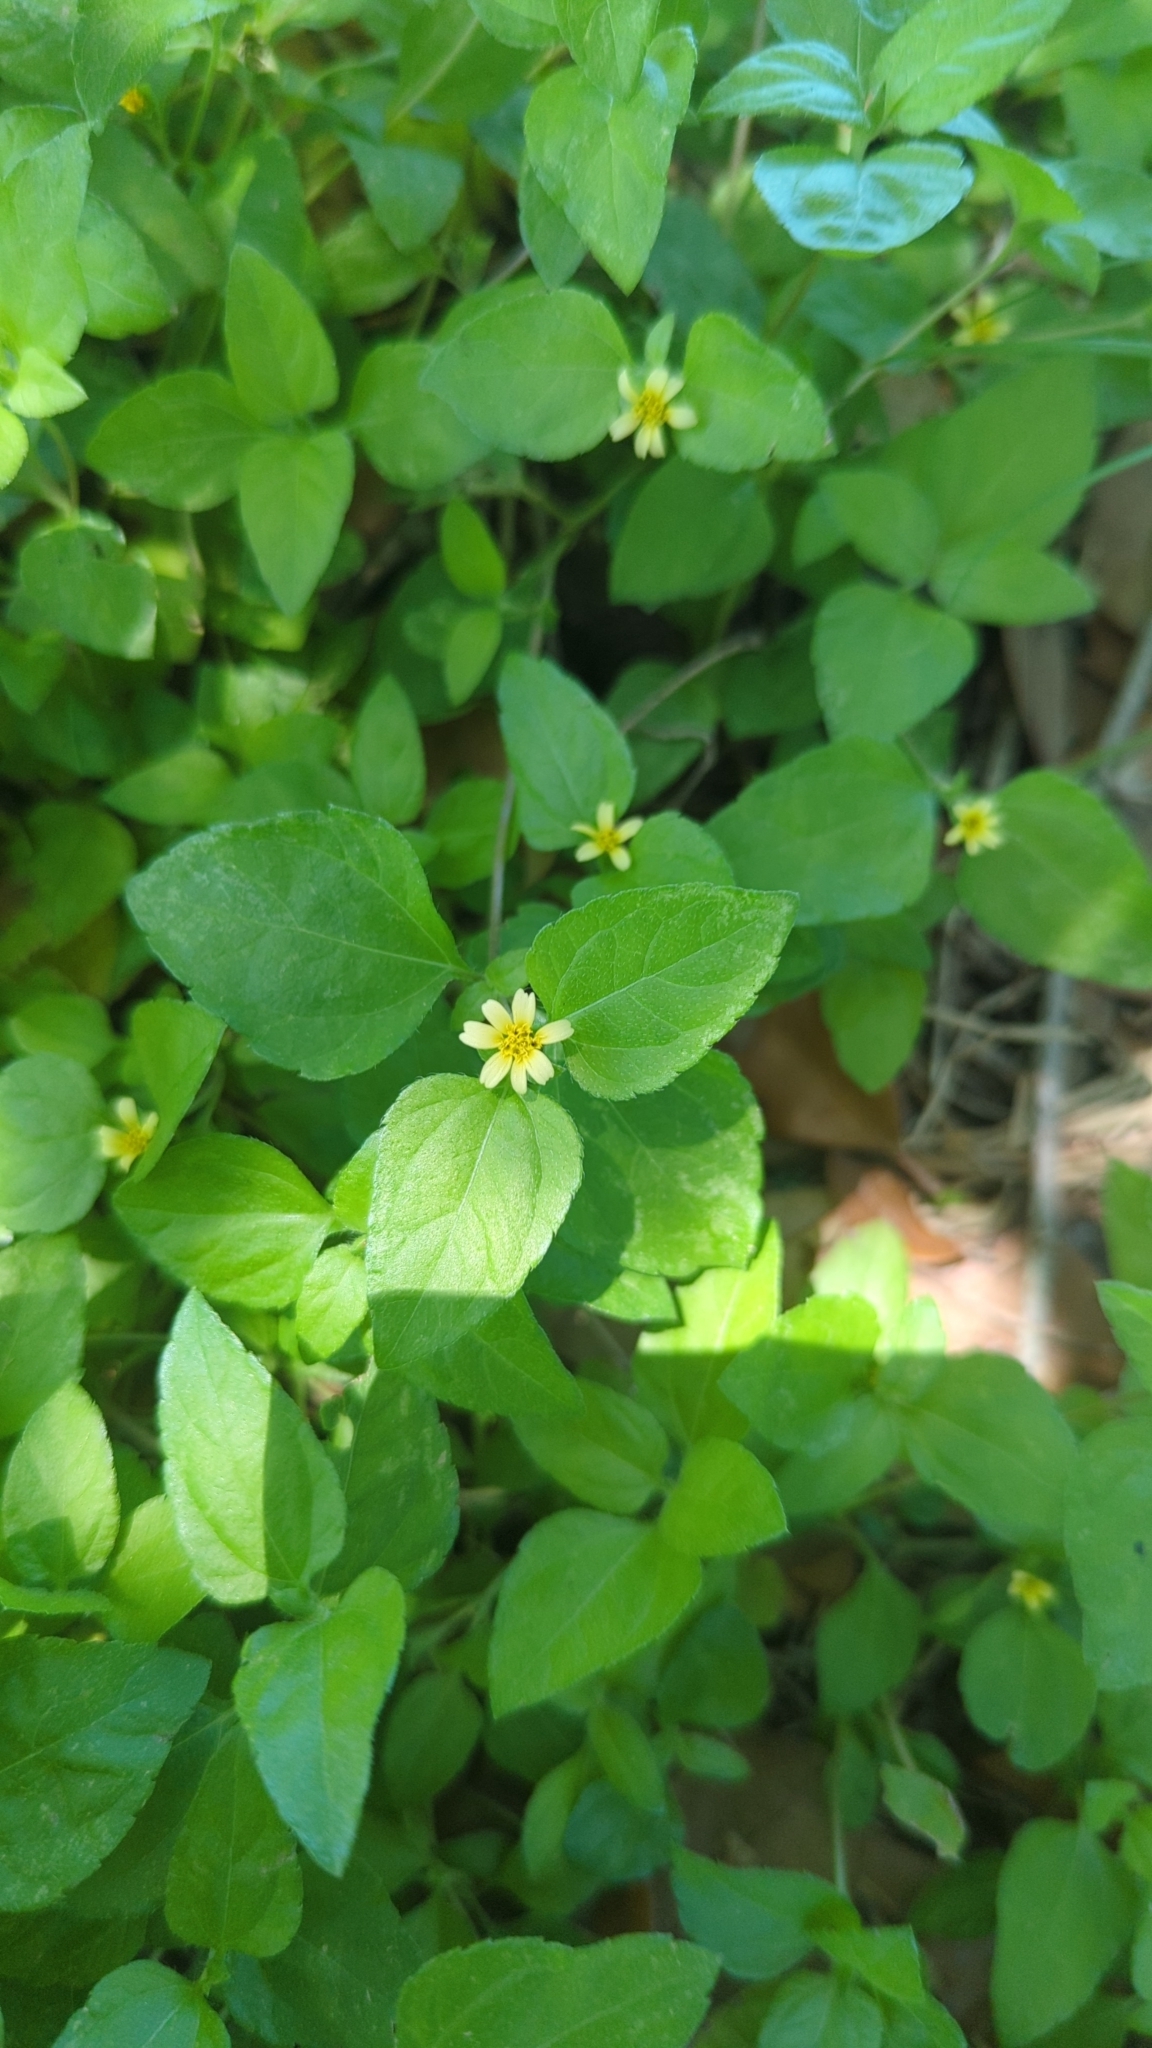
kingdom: Plantae
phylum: Tracheophyta
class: Magnoliopsida
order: Asterales
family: Asteraceae
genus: Calyptocarpus
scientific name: Calyptocarpus vialis
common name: Straggler daisy
